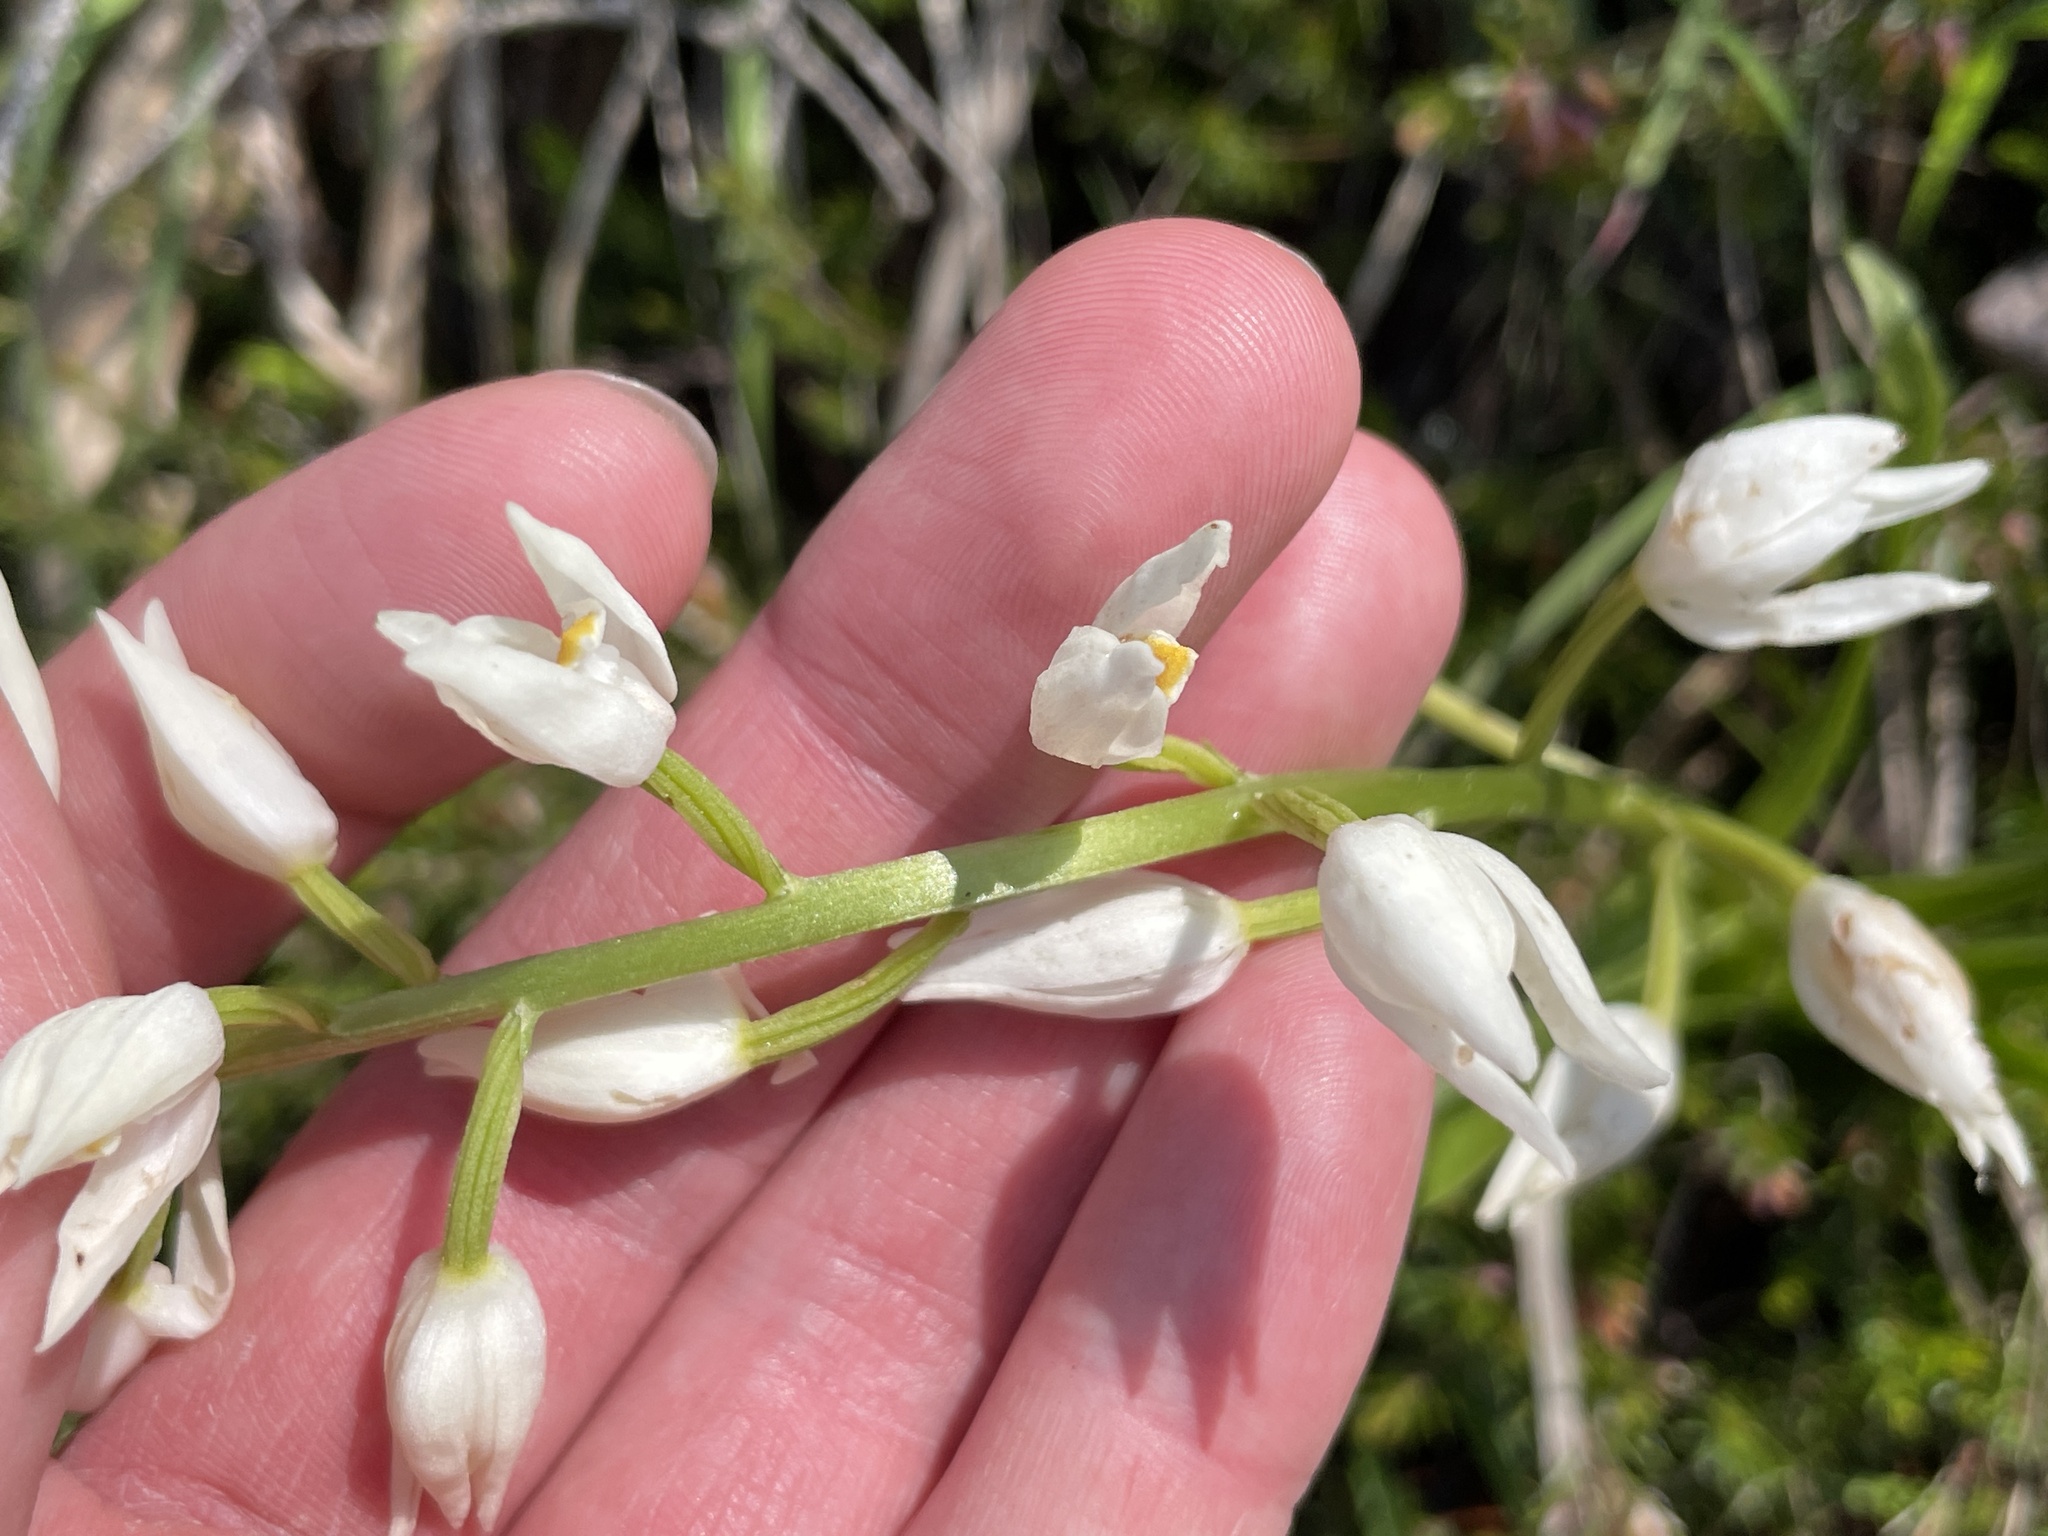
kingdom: Plantae
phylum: Tracheophyta
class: Liliopsida
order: Asparagales
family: Orchidaceae
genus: Cephalanthera
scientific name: Cephalanthera longifolia
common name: Narrow-leaved helleborine
